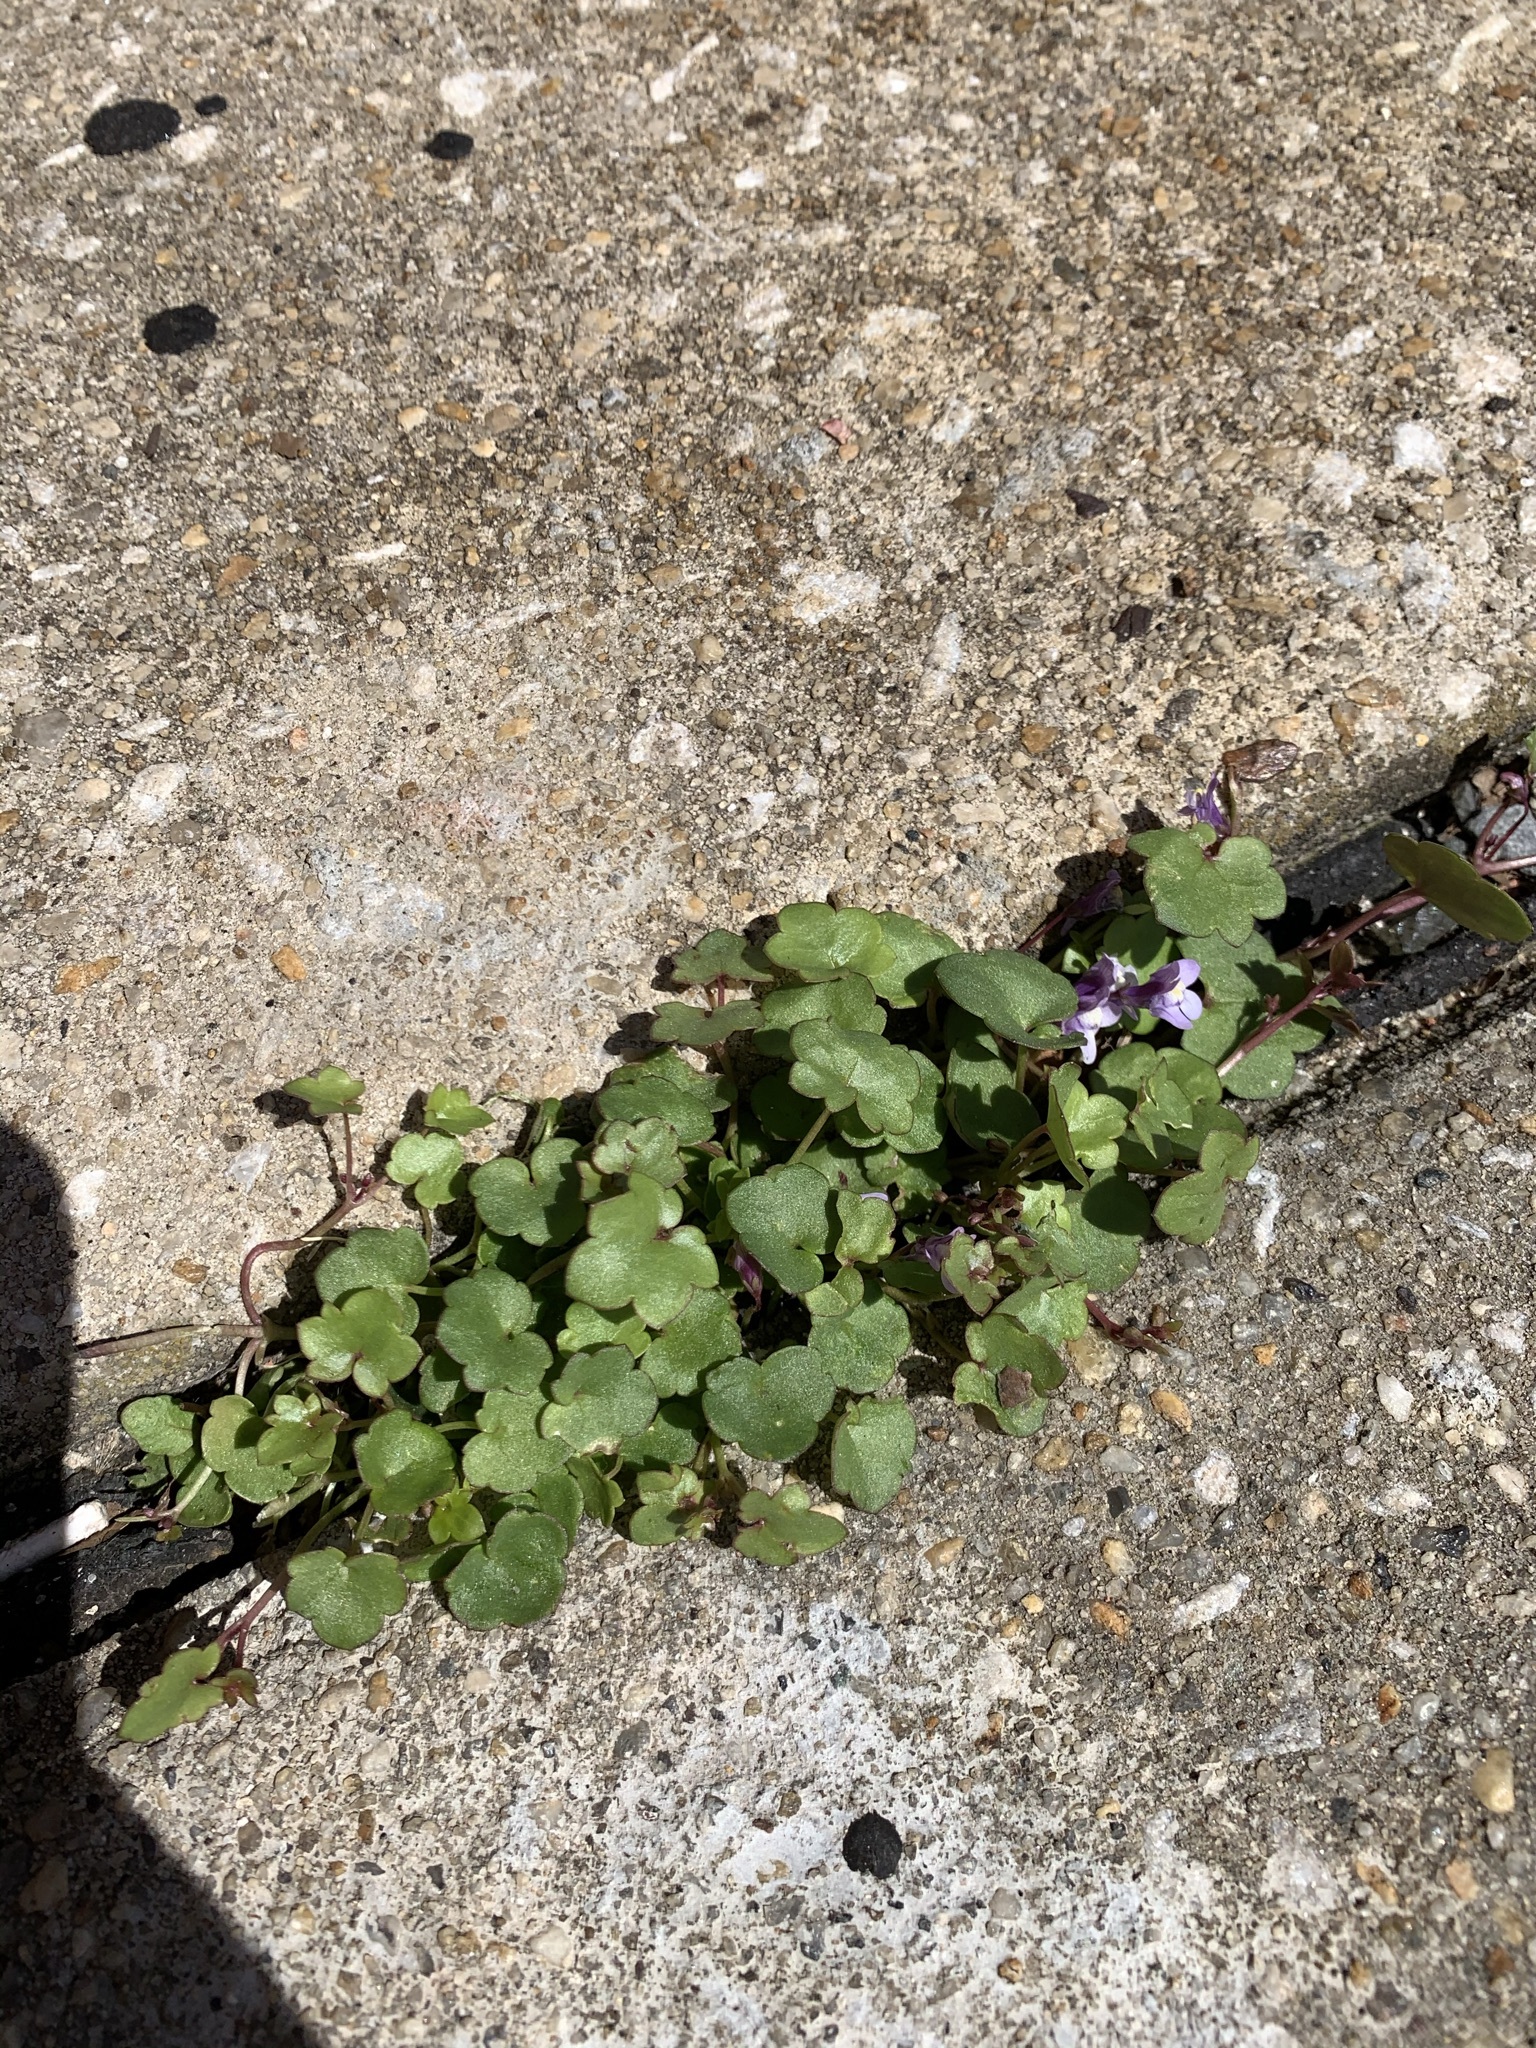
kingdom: Plantae
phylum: Tracheophyta
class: Magnoliopsida
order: Lamiales
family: Plantaginaceae
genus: Cymbalaria
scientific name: Cymbalaria muralis
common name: Ivy-leaved toadflax
